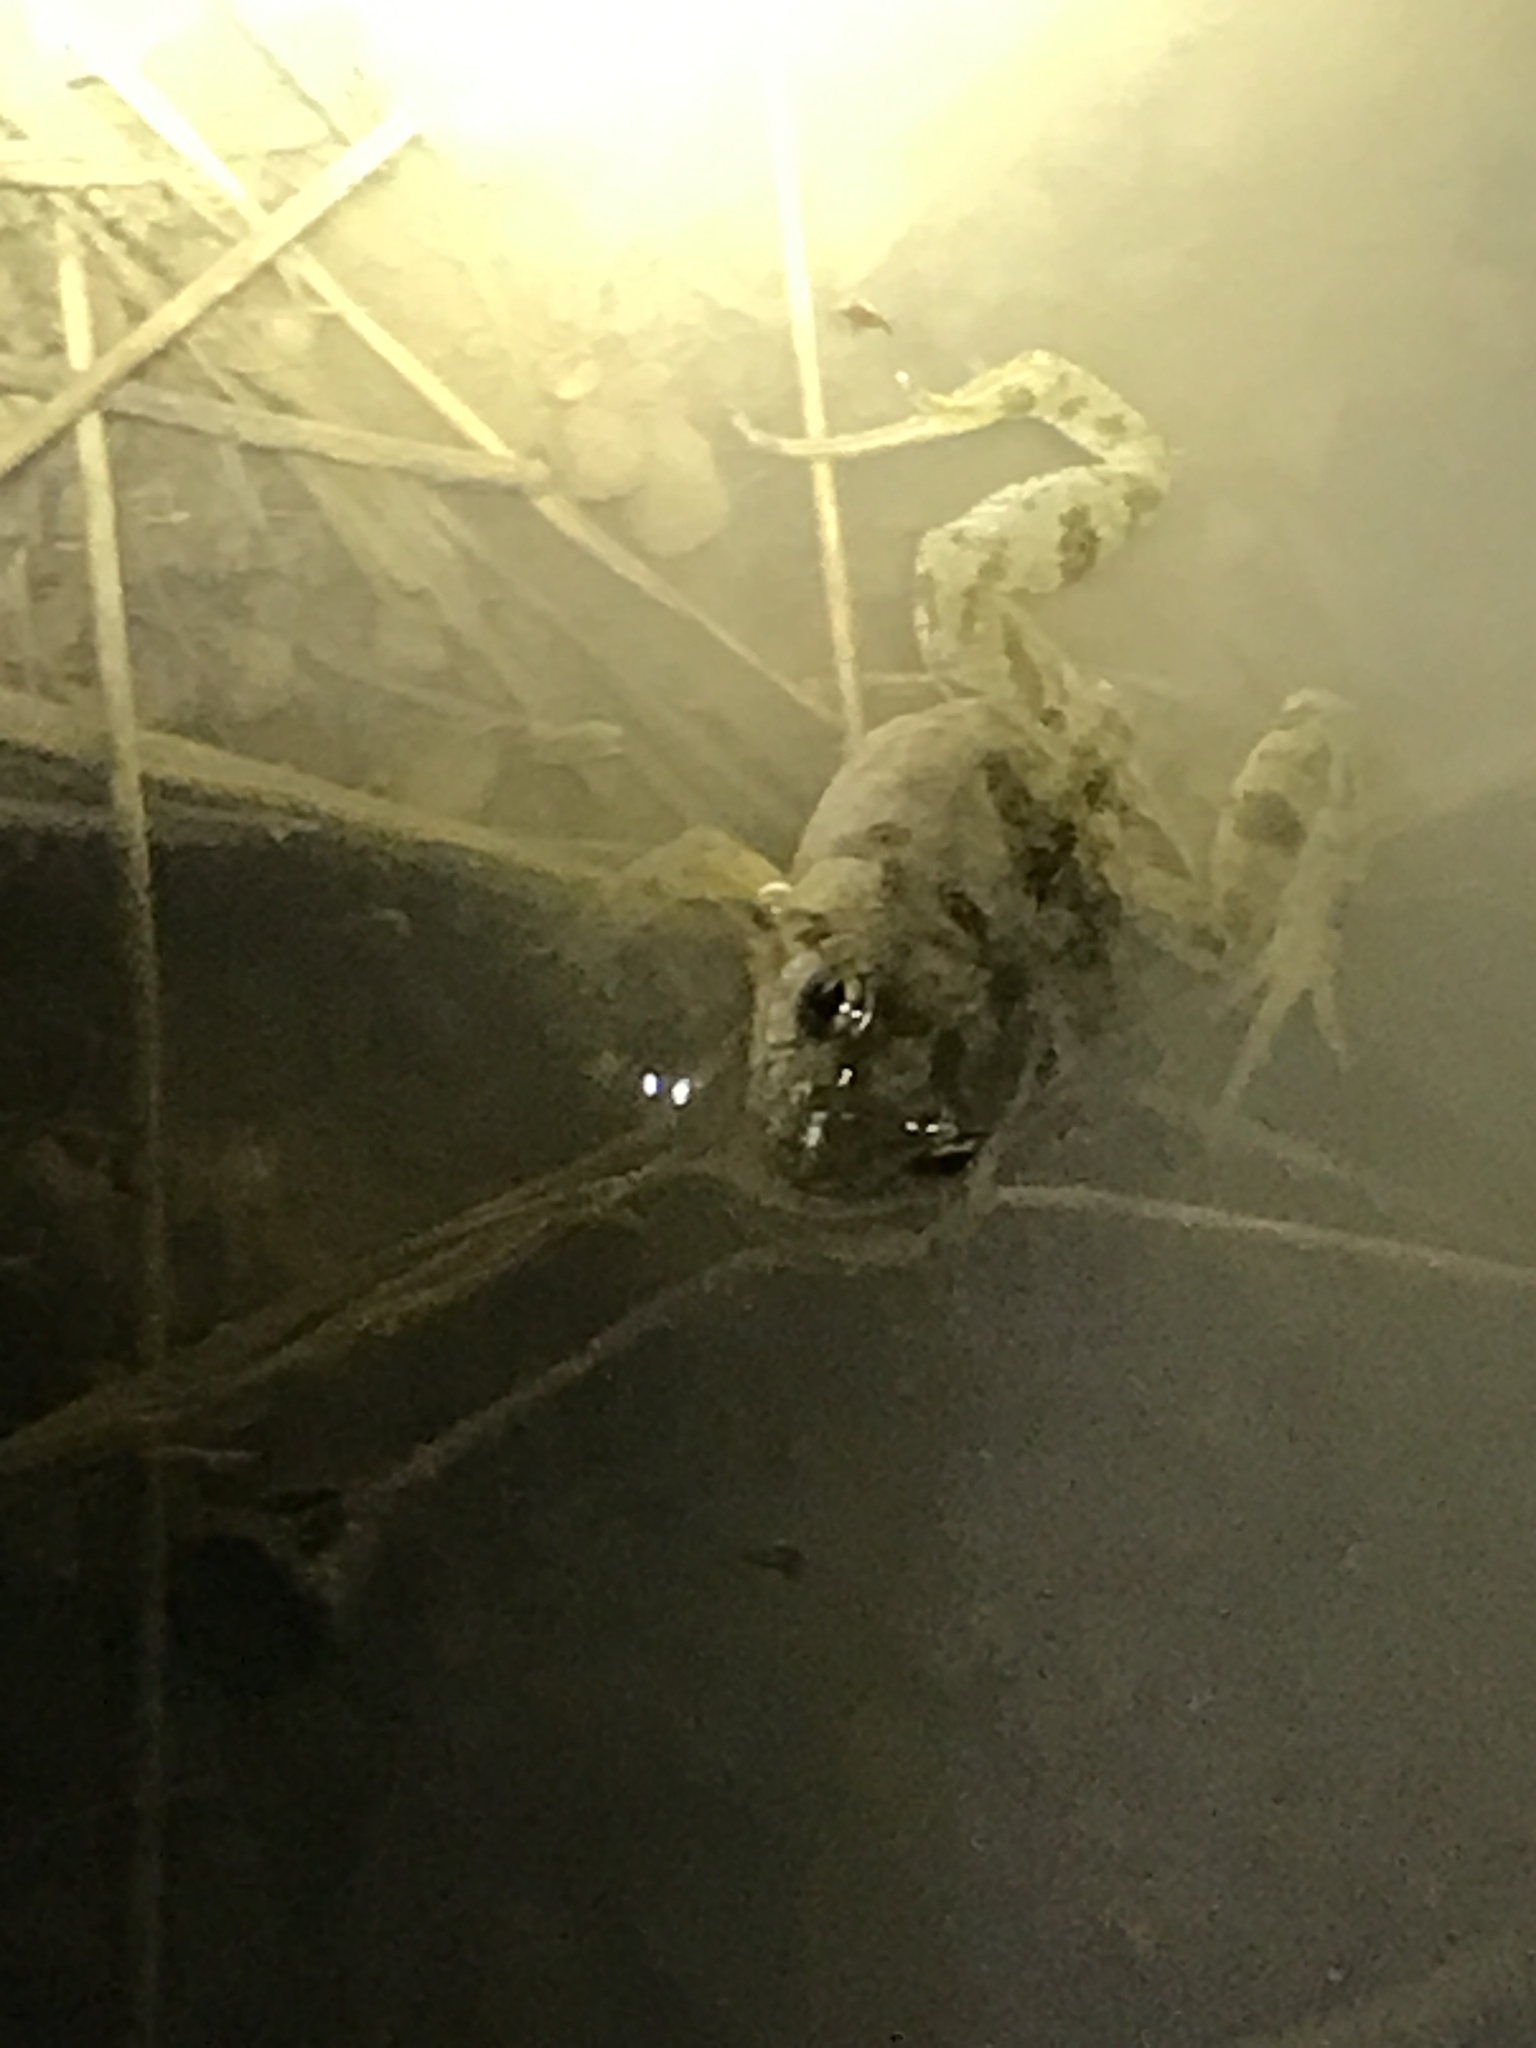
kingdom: Animalia
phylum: Chordata
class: Amphibia
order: Anura
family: Myobatrachidae
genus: Crinia
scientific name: Crinia signifera
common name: Brown froglet
